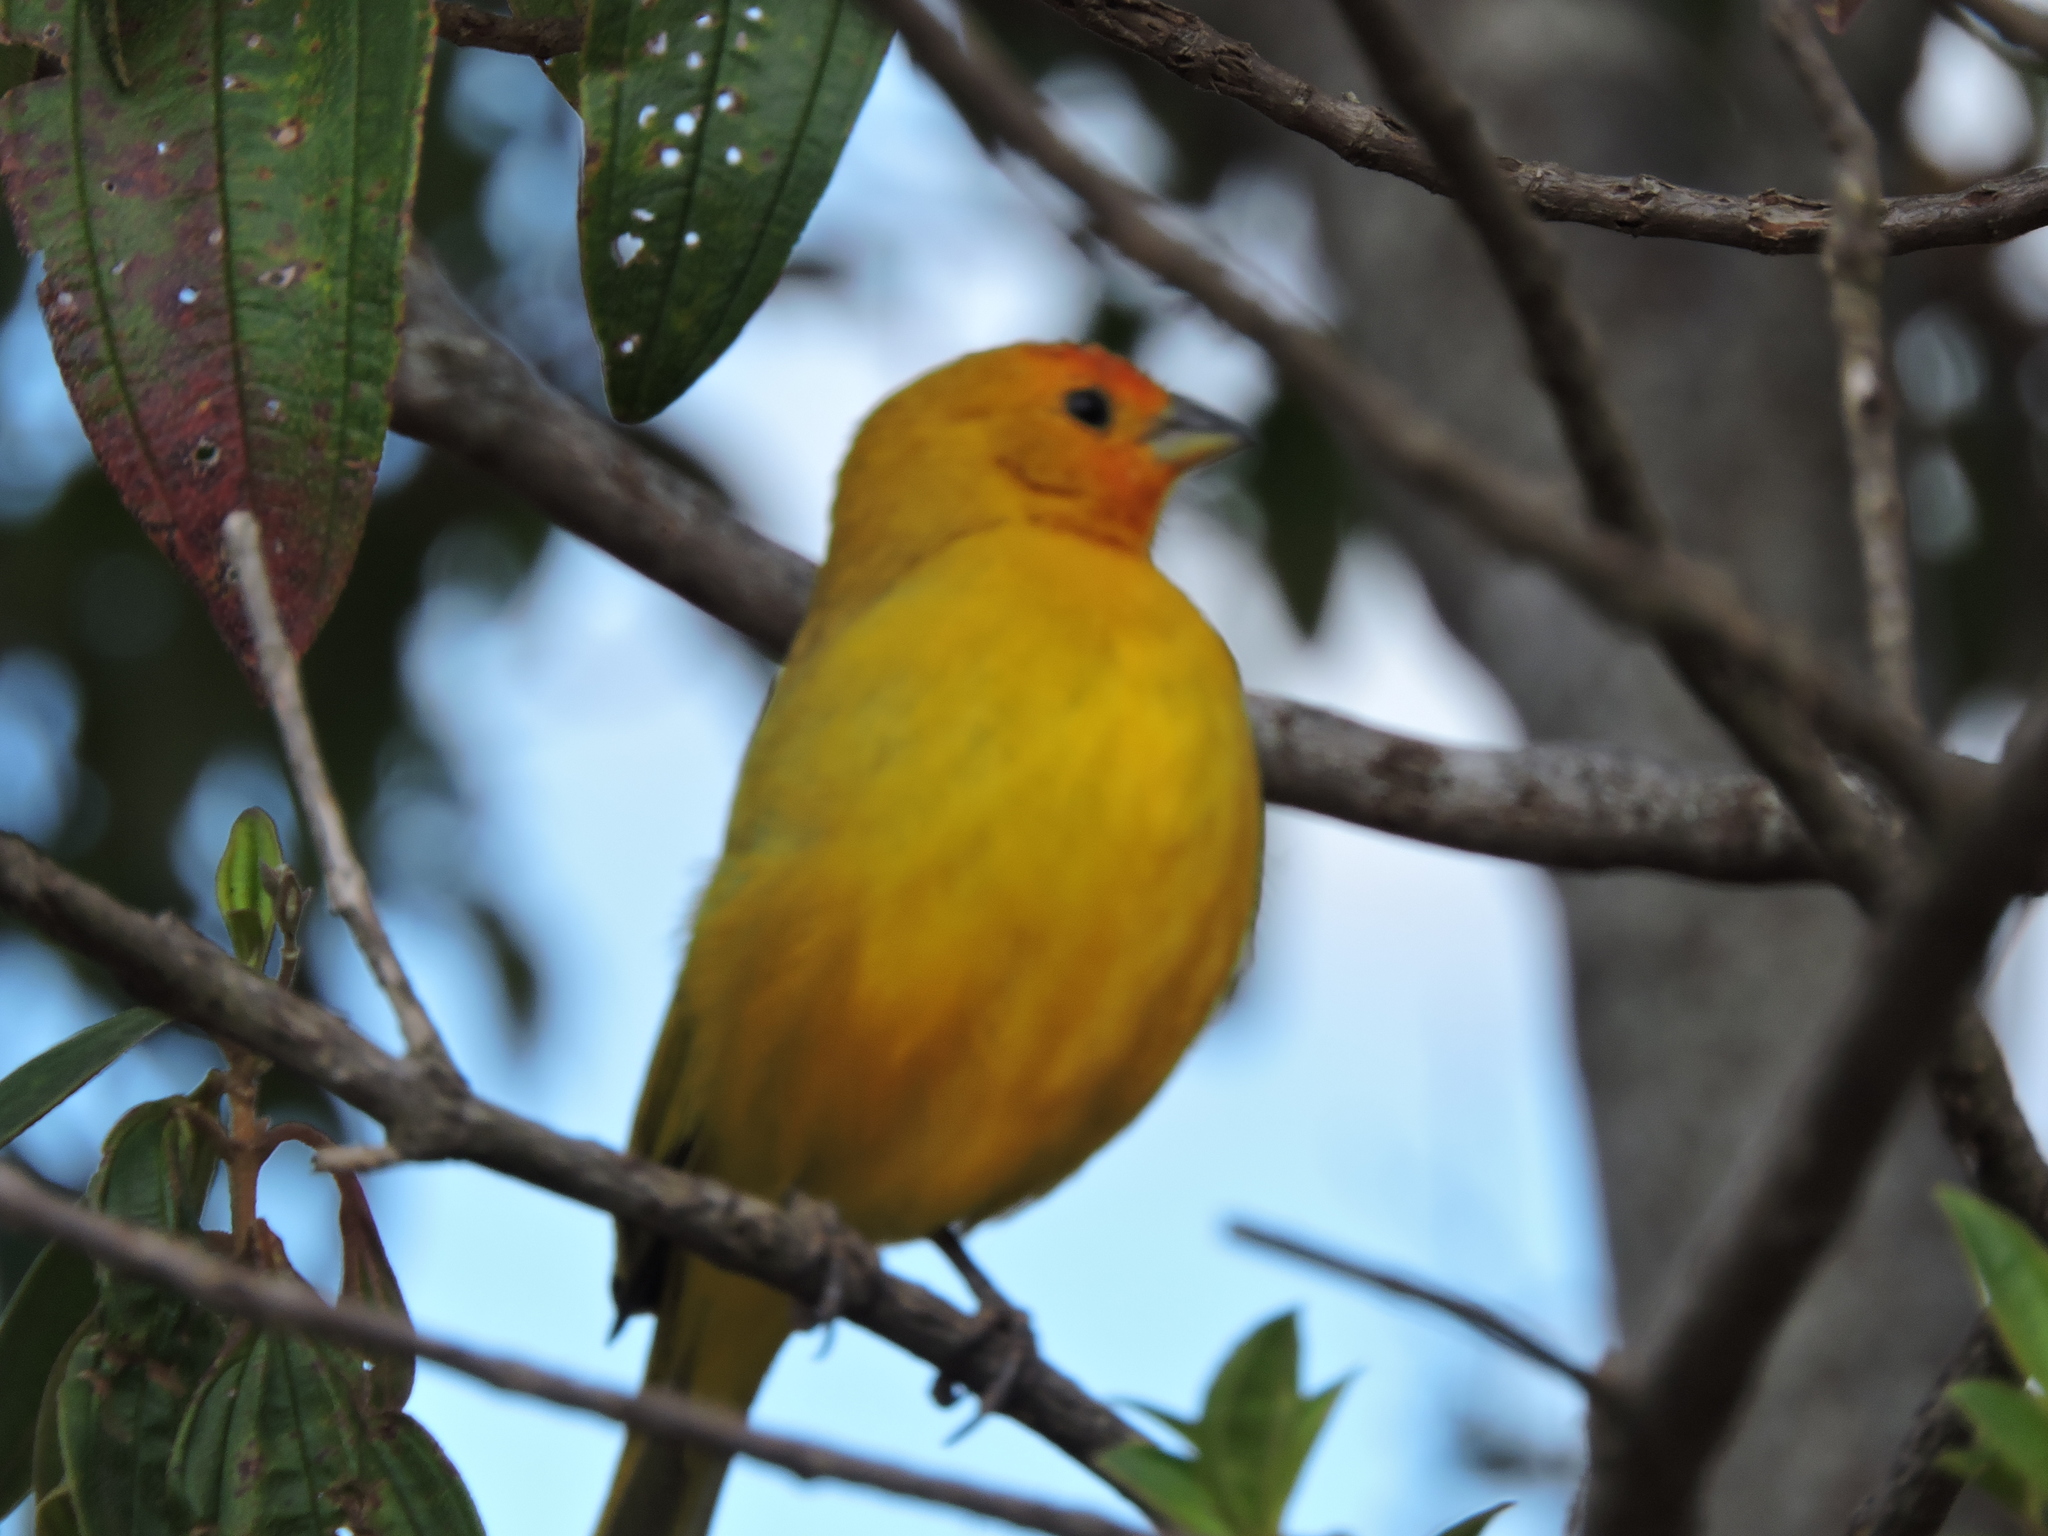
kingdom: Animalia
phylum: Chordata
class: Aves
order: Passeriformes
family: Thraupidae
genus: Sicalis
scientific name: Sicalis flaveola
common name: Saffron finch
